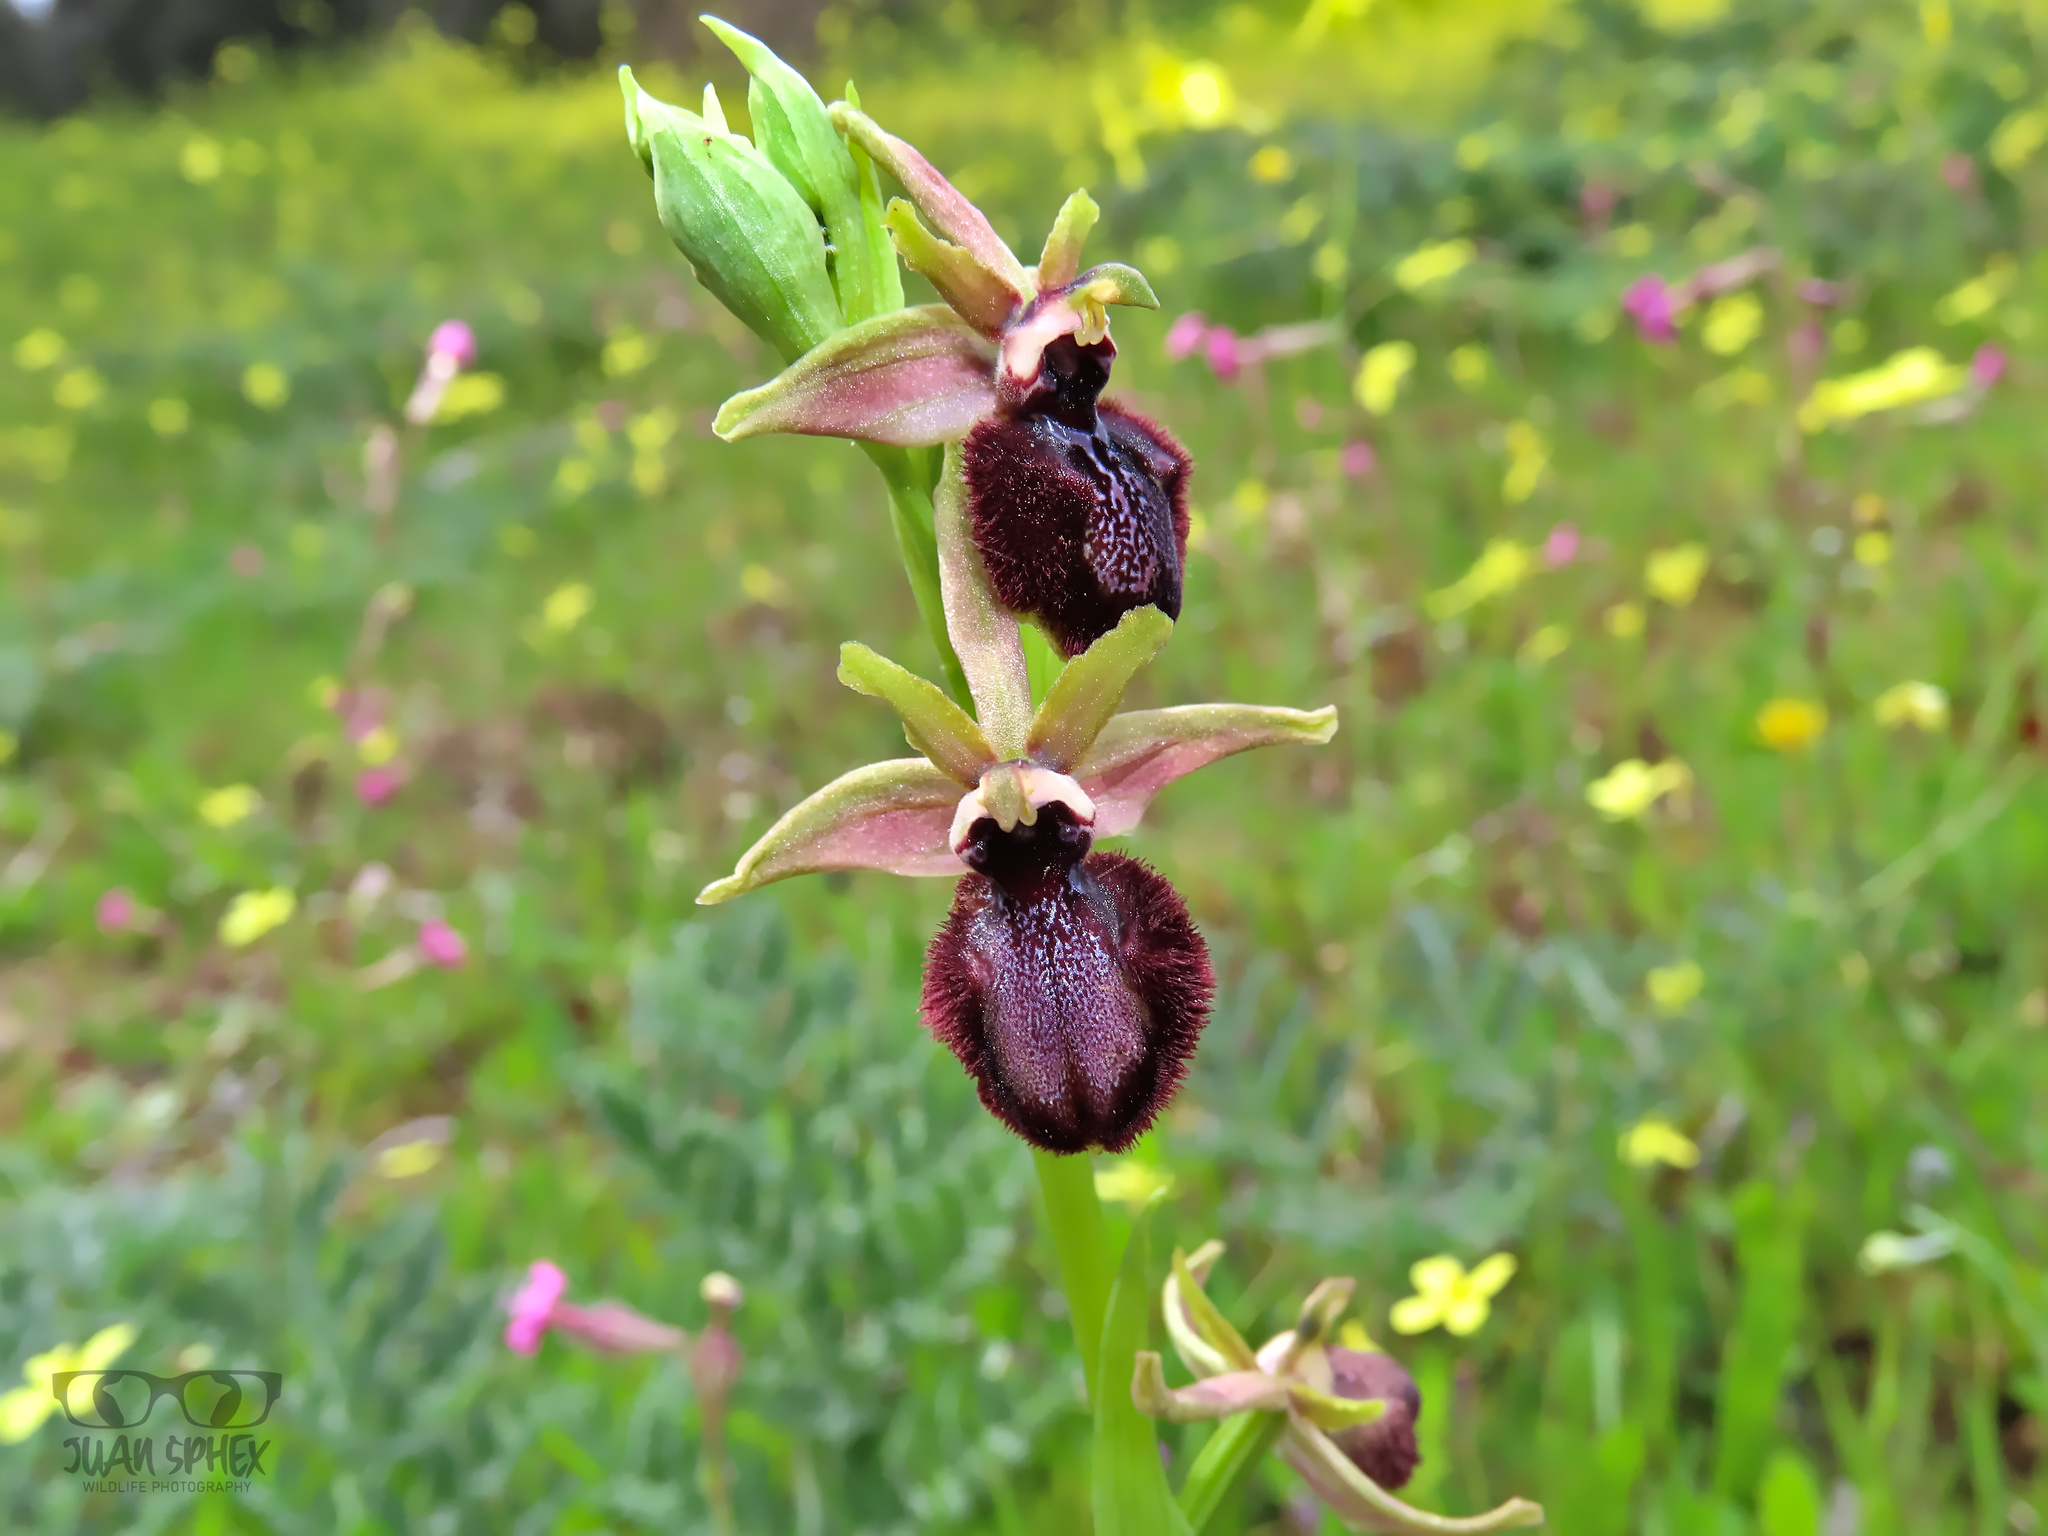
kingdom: Plantae
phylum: Tracheophyta
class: Liliopsida
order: Asparagales
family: Orchidaceae
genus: Ophrys
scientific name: Ophrys sphegodes
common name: Early spider-orchid
